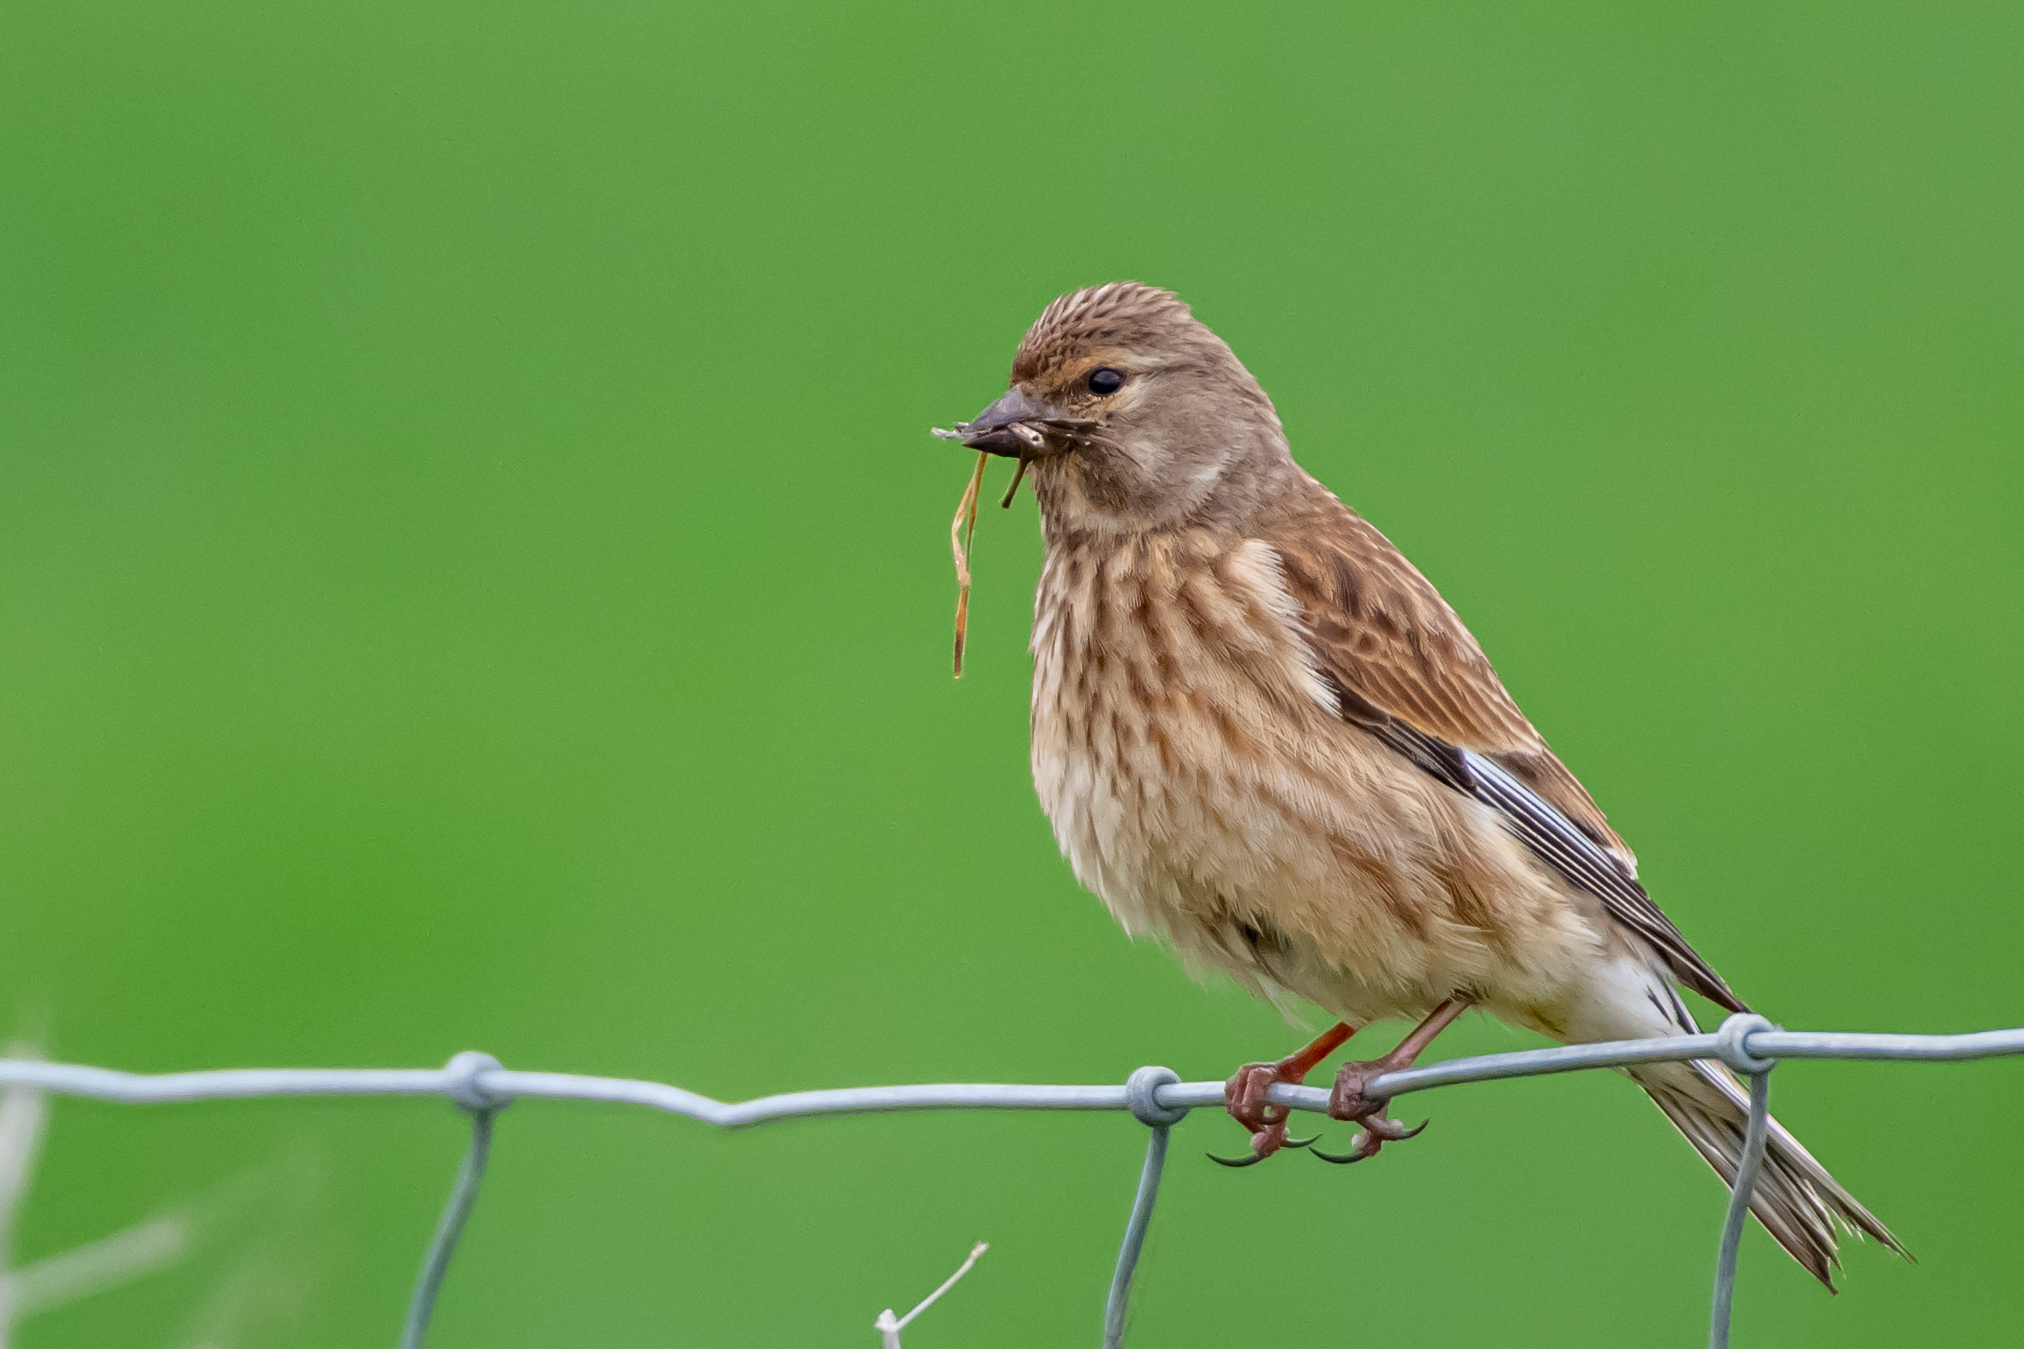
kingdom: Animalia
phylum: Chordata
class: Aves
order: Passeriformes
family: Fringillidae
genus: Linaria
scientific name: Linaria cannabina
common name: Common linnet
